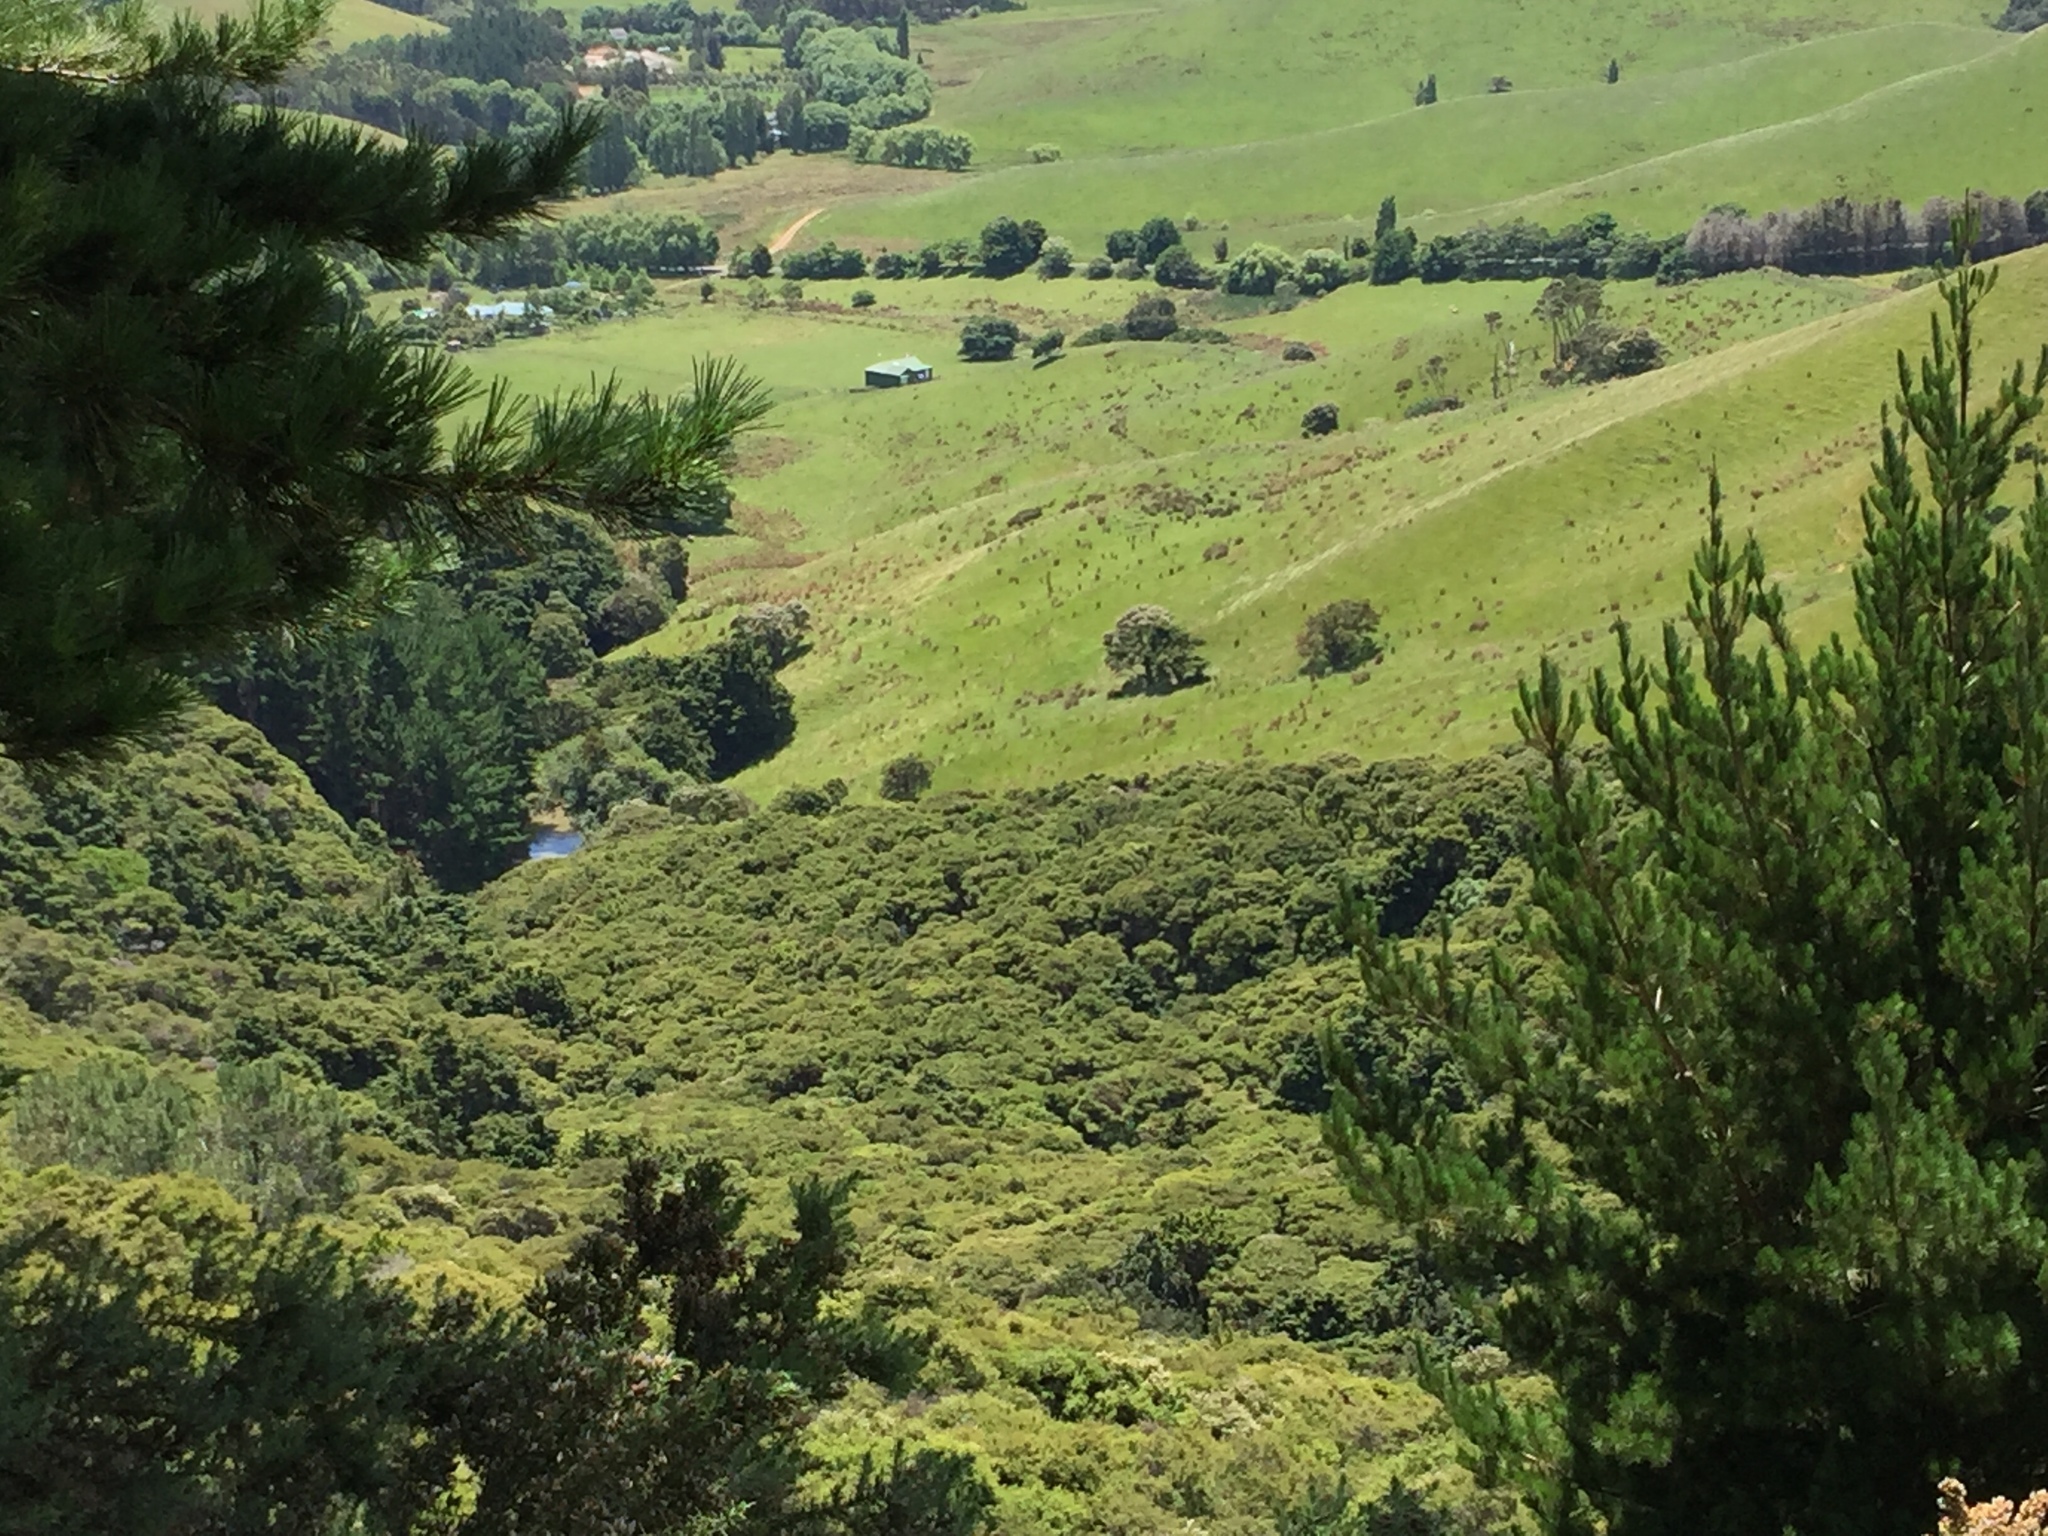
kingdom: Plantae
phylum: Tracheophyta
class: Pinopsida
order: Pinales
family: Pinaceae
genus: Pinus
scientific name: Pinus radiata
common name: Monterey pine
